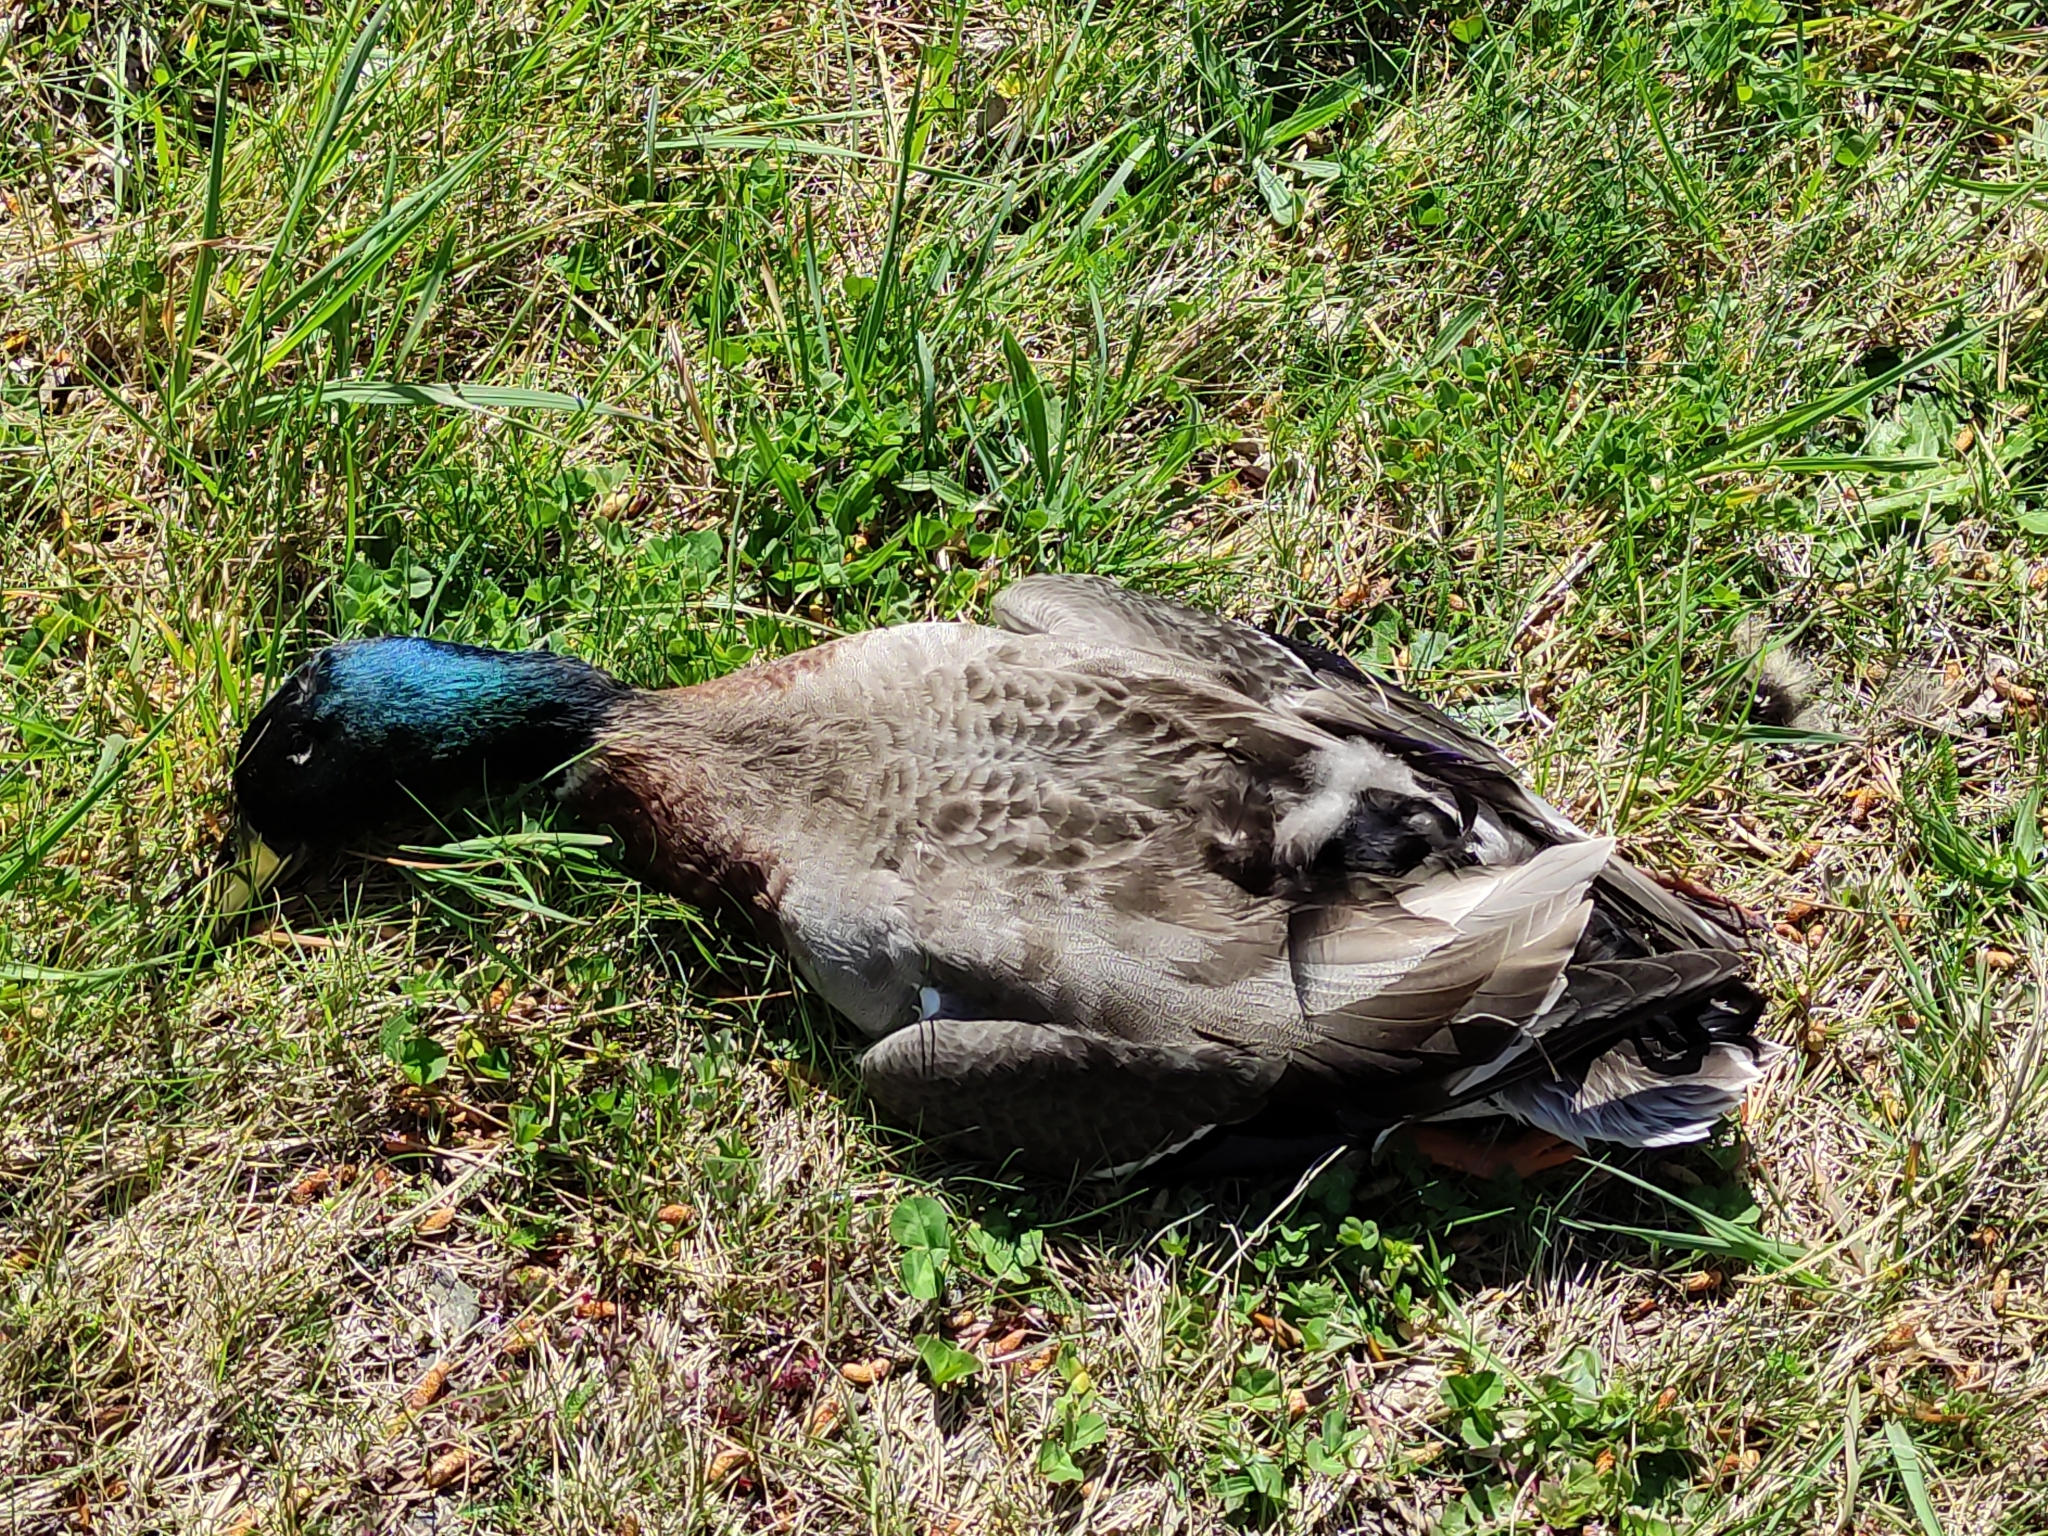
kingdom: Animalia
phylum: Chordata
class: Aves
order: Anseriformes
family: Anatidae
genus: Anas
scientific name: Anas platyrhynchos
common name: Mallard
